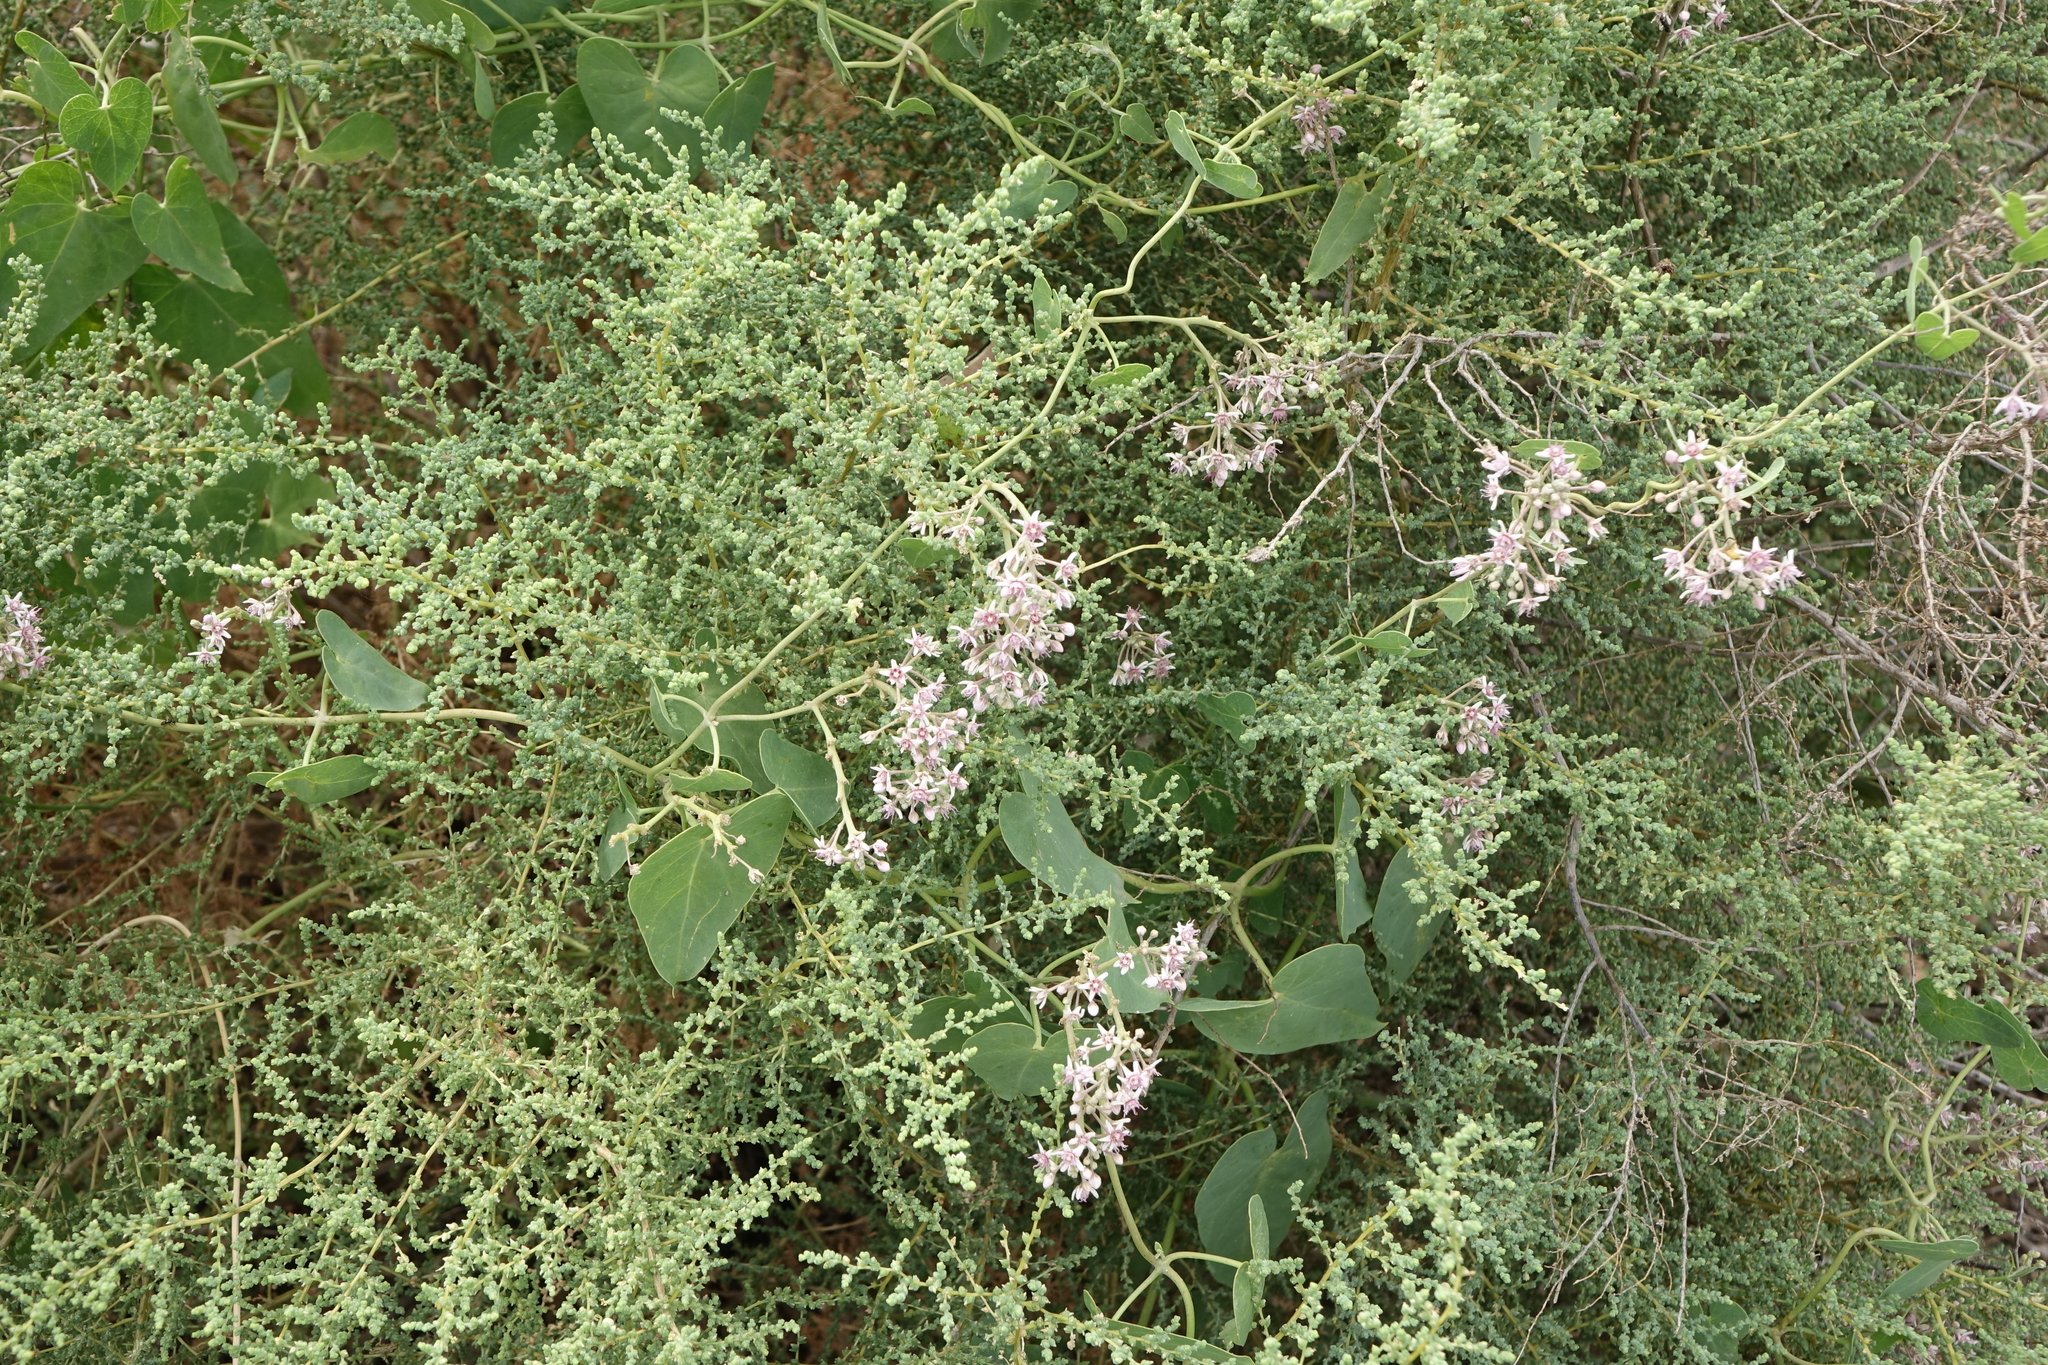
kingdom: Plantae
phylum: Tracheophyta
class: Magnoliopsida
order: Gentianales
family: Apocynaceae
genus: Cynanchum
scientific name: Cynanchum acutum
